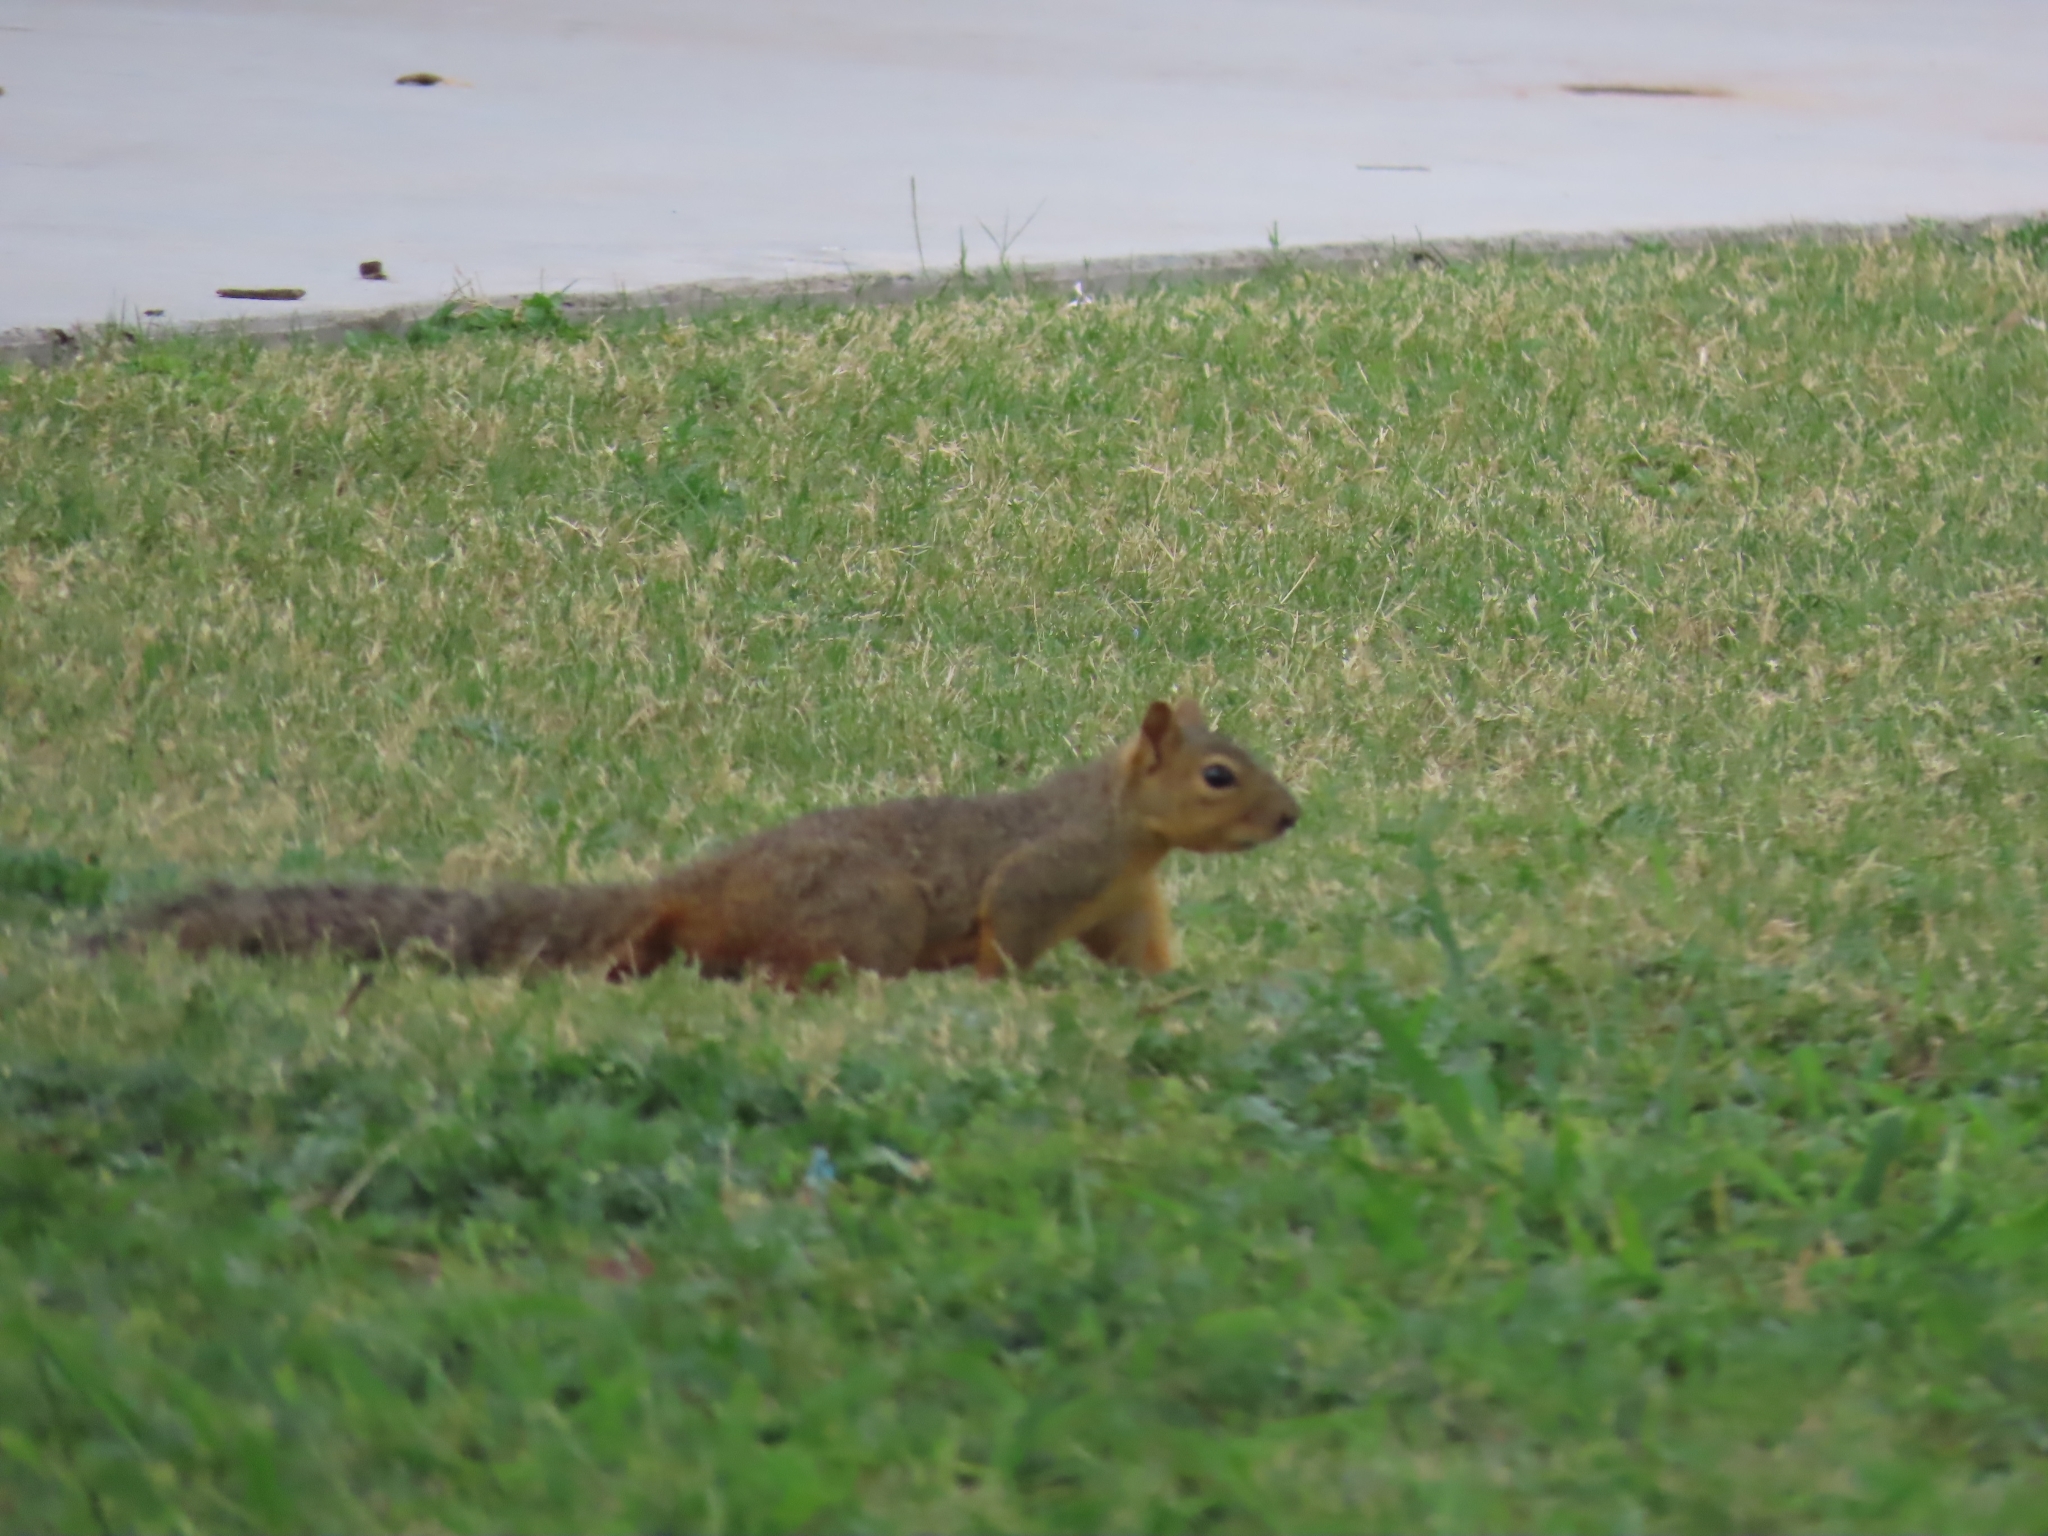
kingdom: Animalia
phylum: Chordata
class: Mammalia
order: Rodentia
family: Sciuridae
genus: Sciurus
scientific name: Sciurus niger
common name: Fox squirrel
